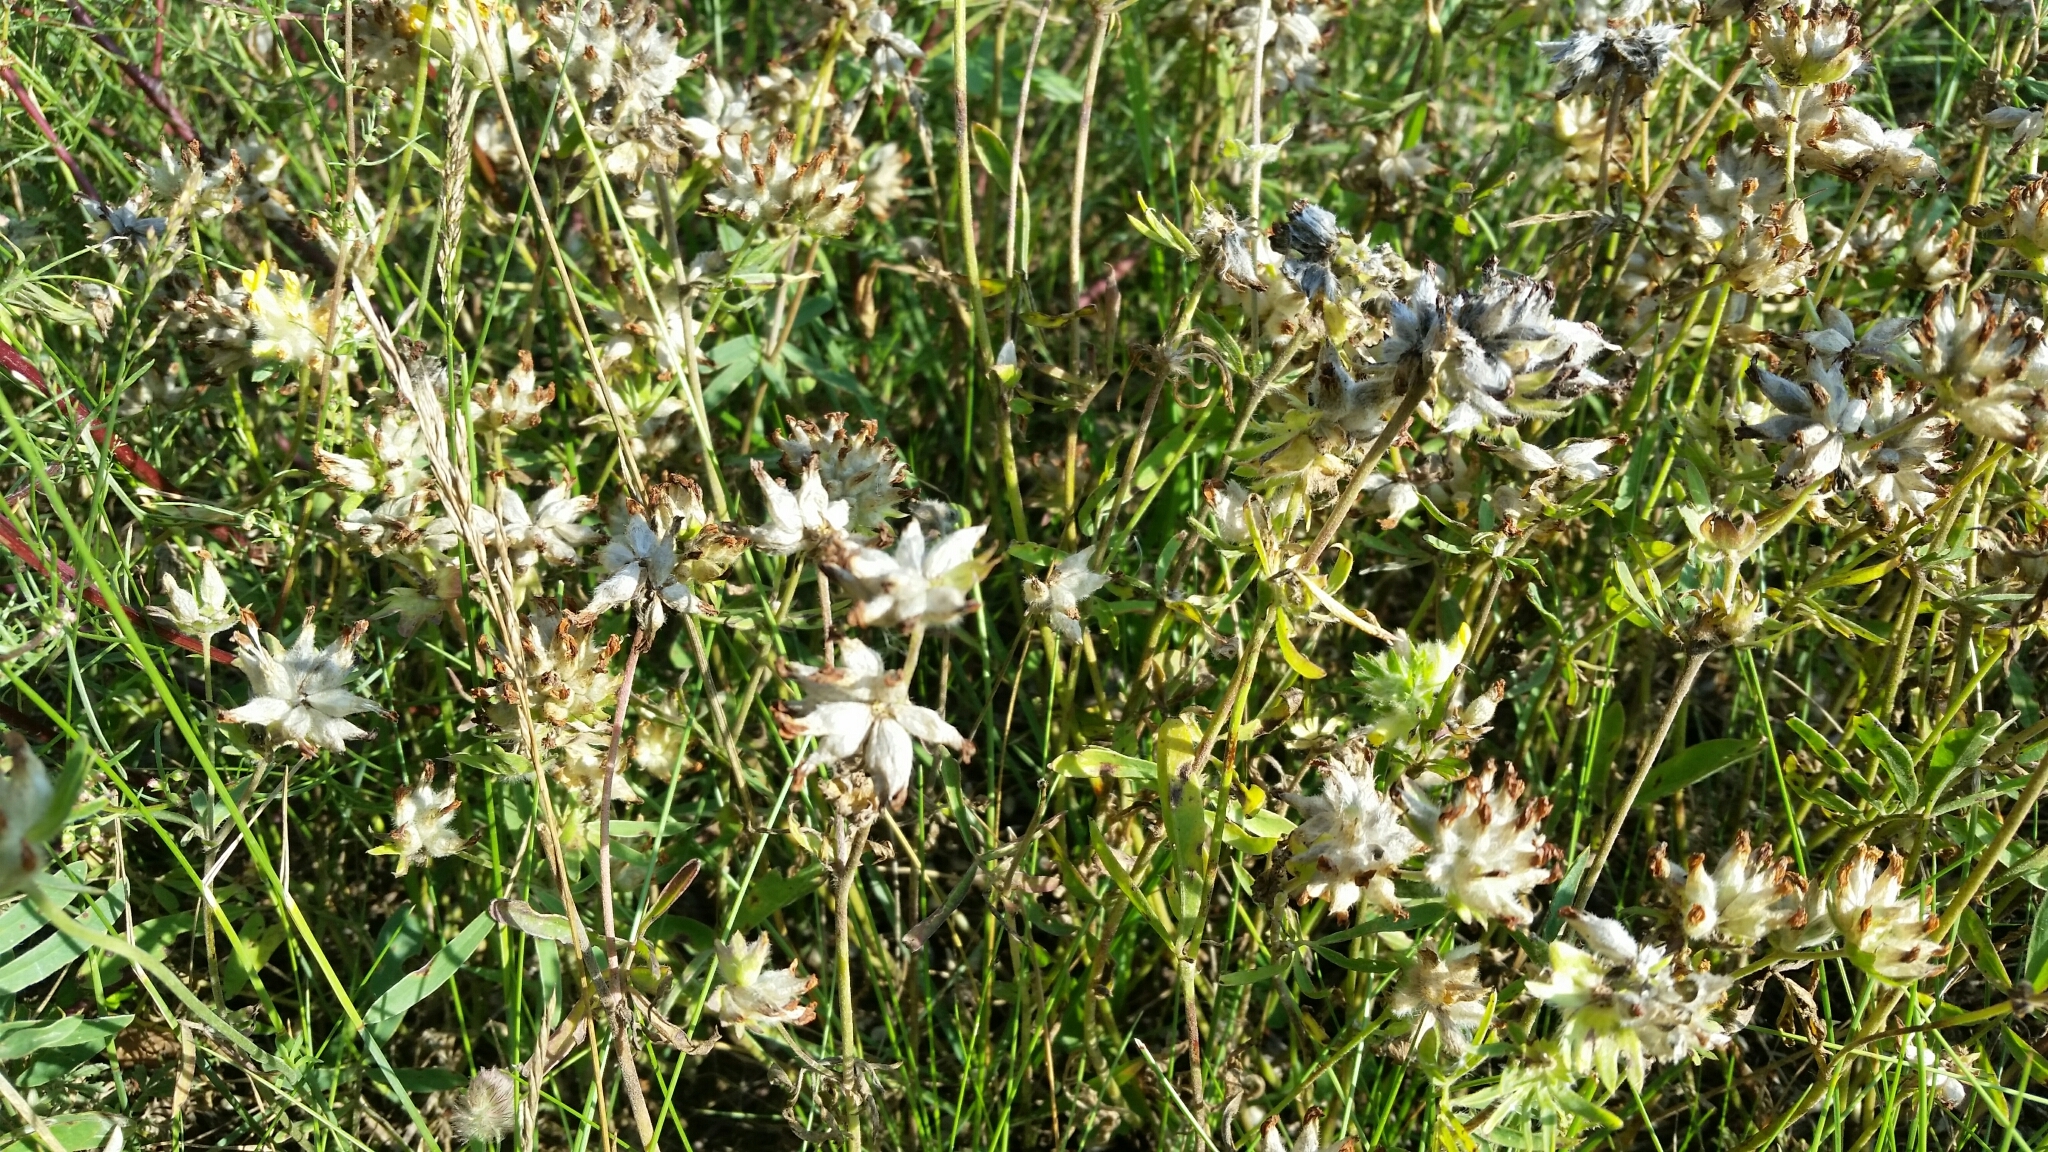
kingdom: Plantae
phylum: Tracheophyta
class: Magnoliopsida
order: Fabales
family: Fabaceae
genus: Anthyllis
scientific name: Anthyllis vulneraria
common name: Kidney vetch
